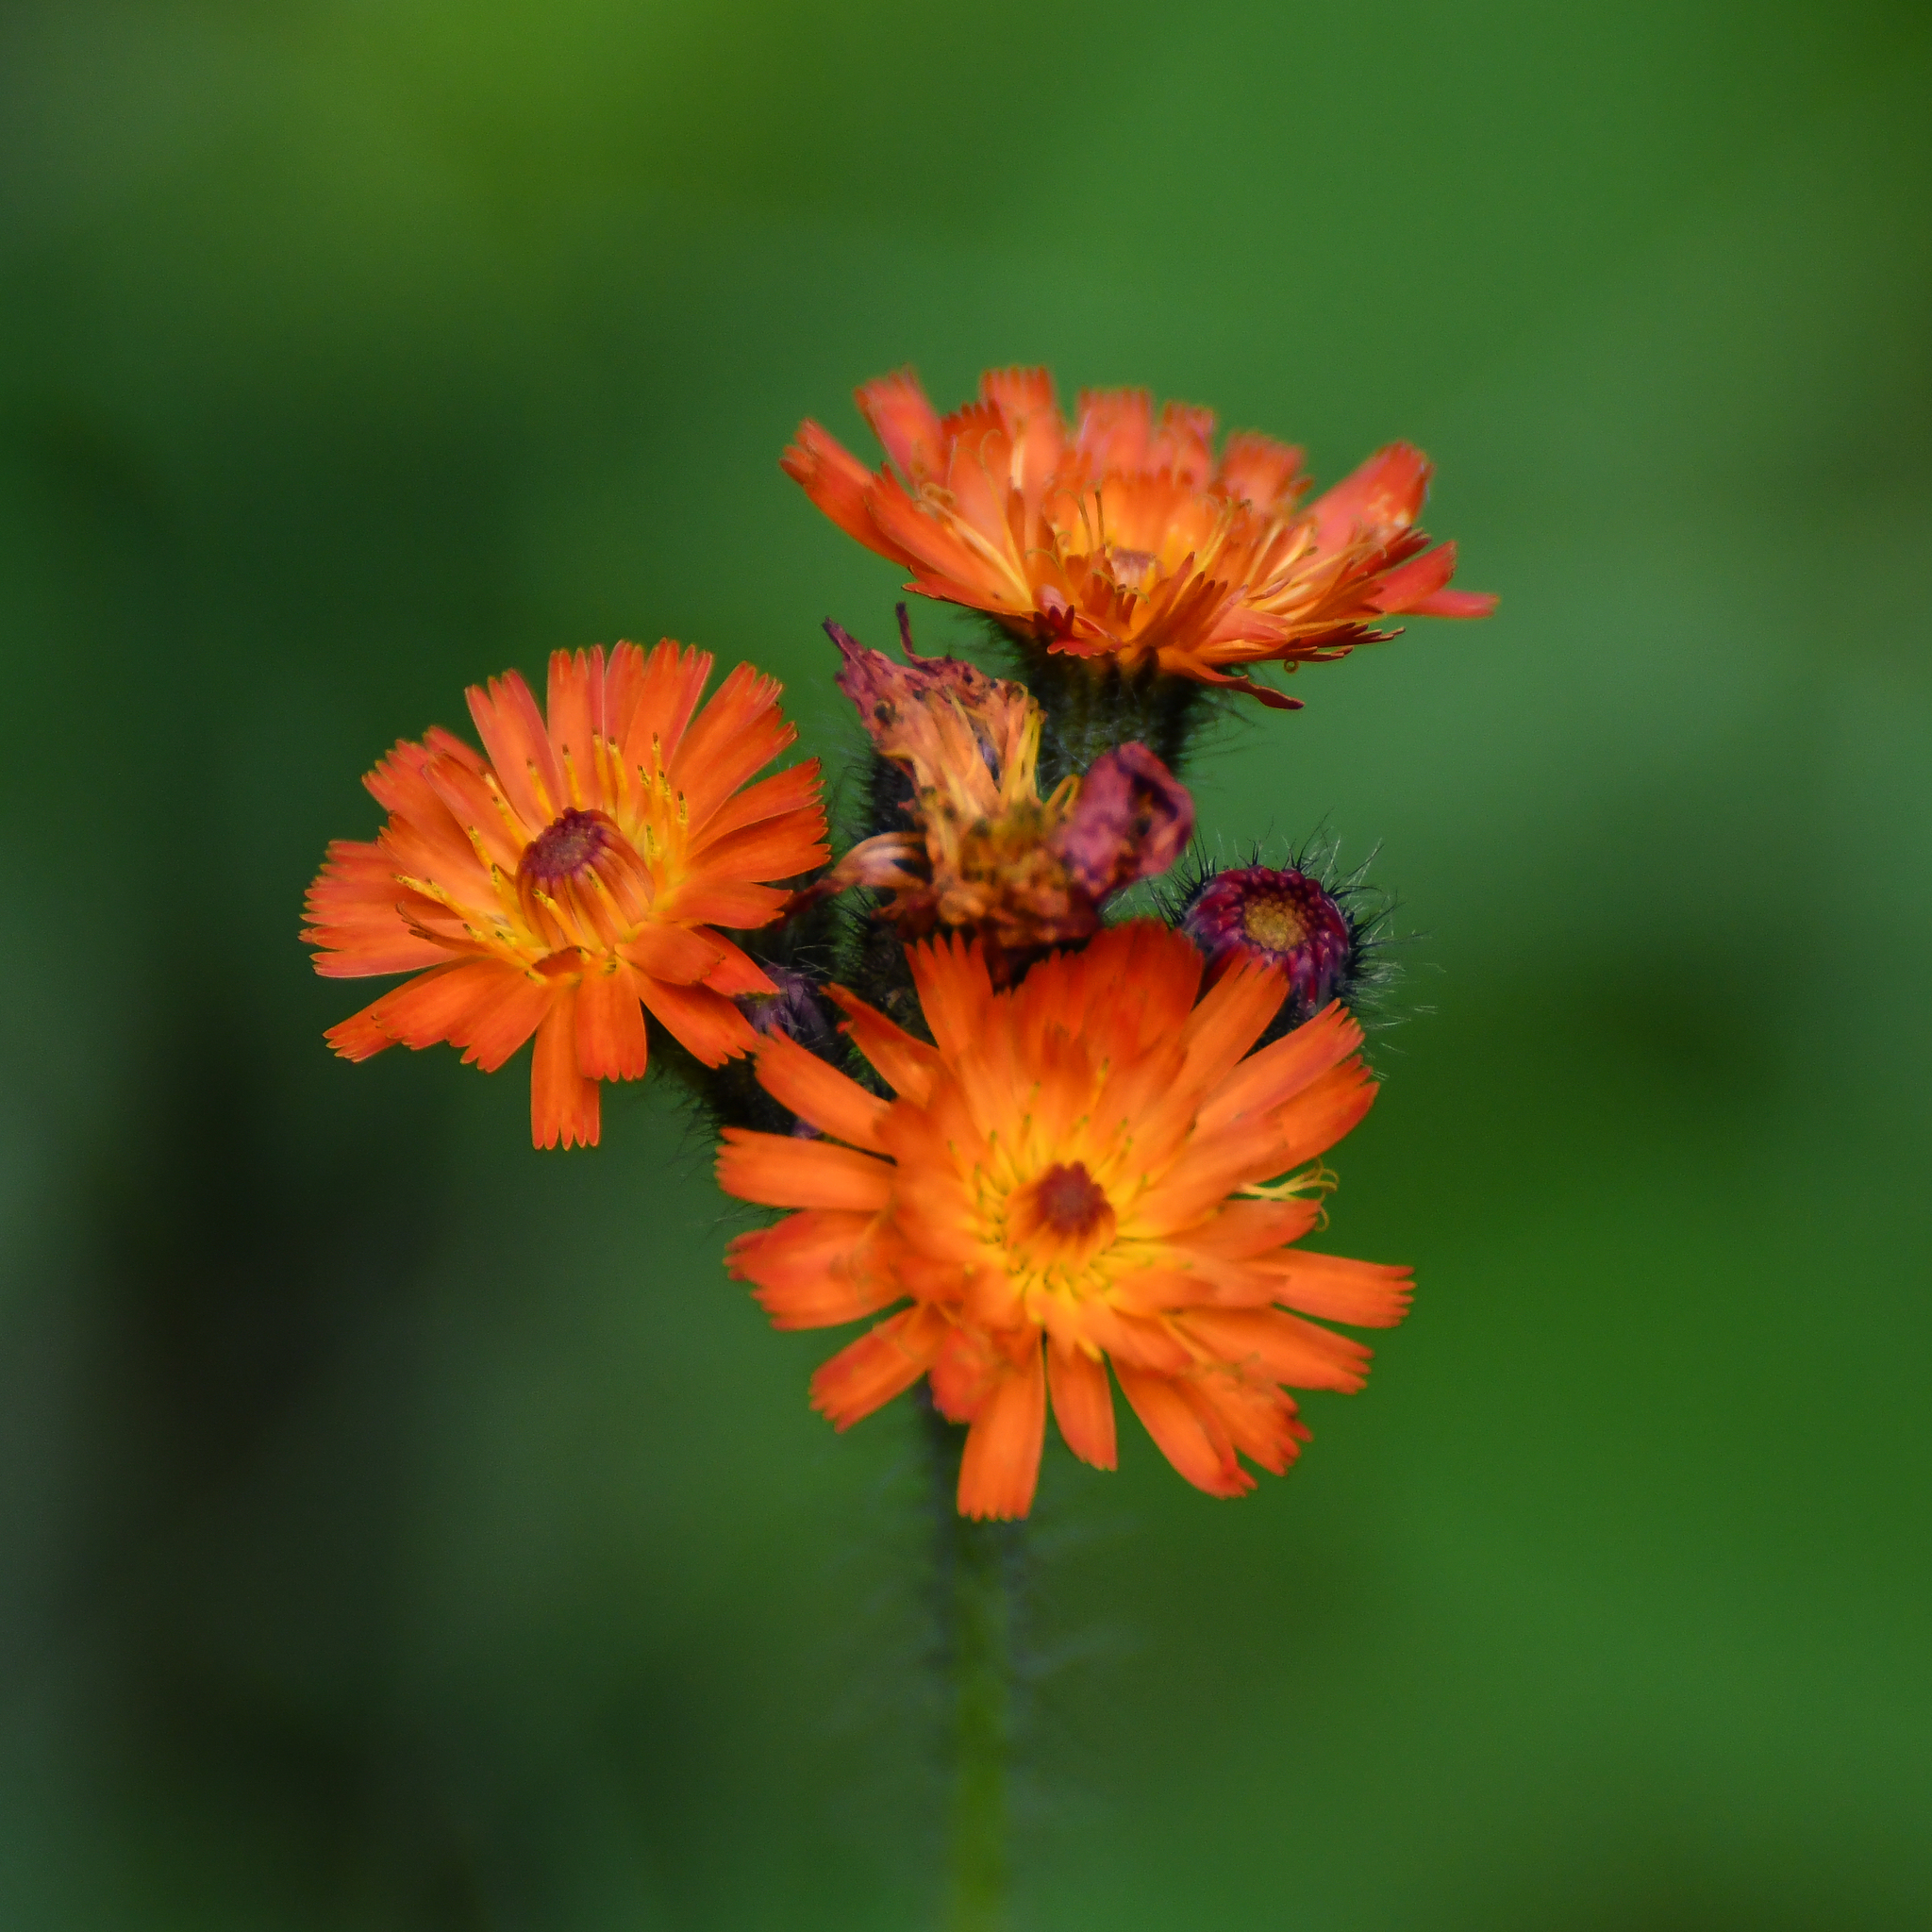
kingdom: Plantae
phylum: Tracheophyta
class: Magnoliopsida
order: Asterales
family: Asteraceae
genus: Pilosella
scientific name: Pilosella aurantiaca
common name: Fox-and-cubs
